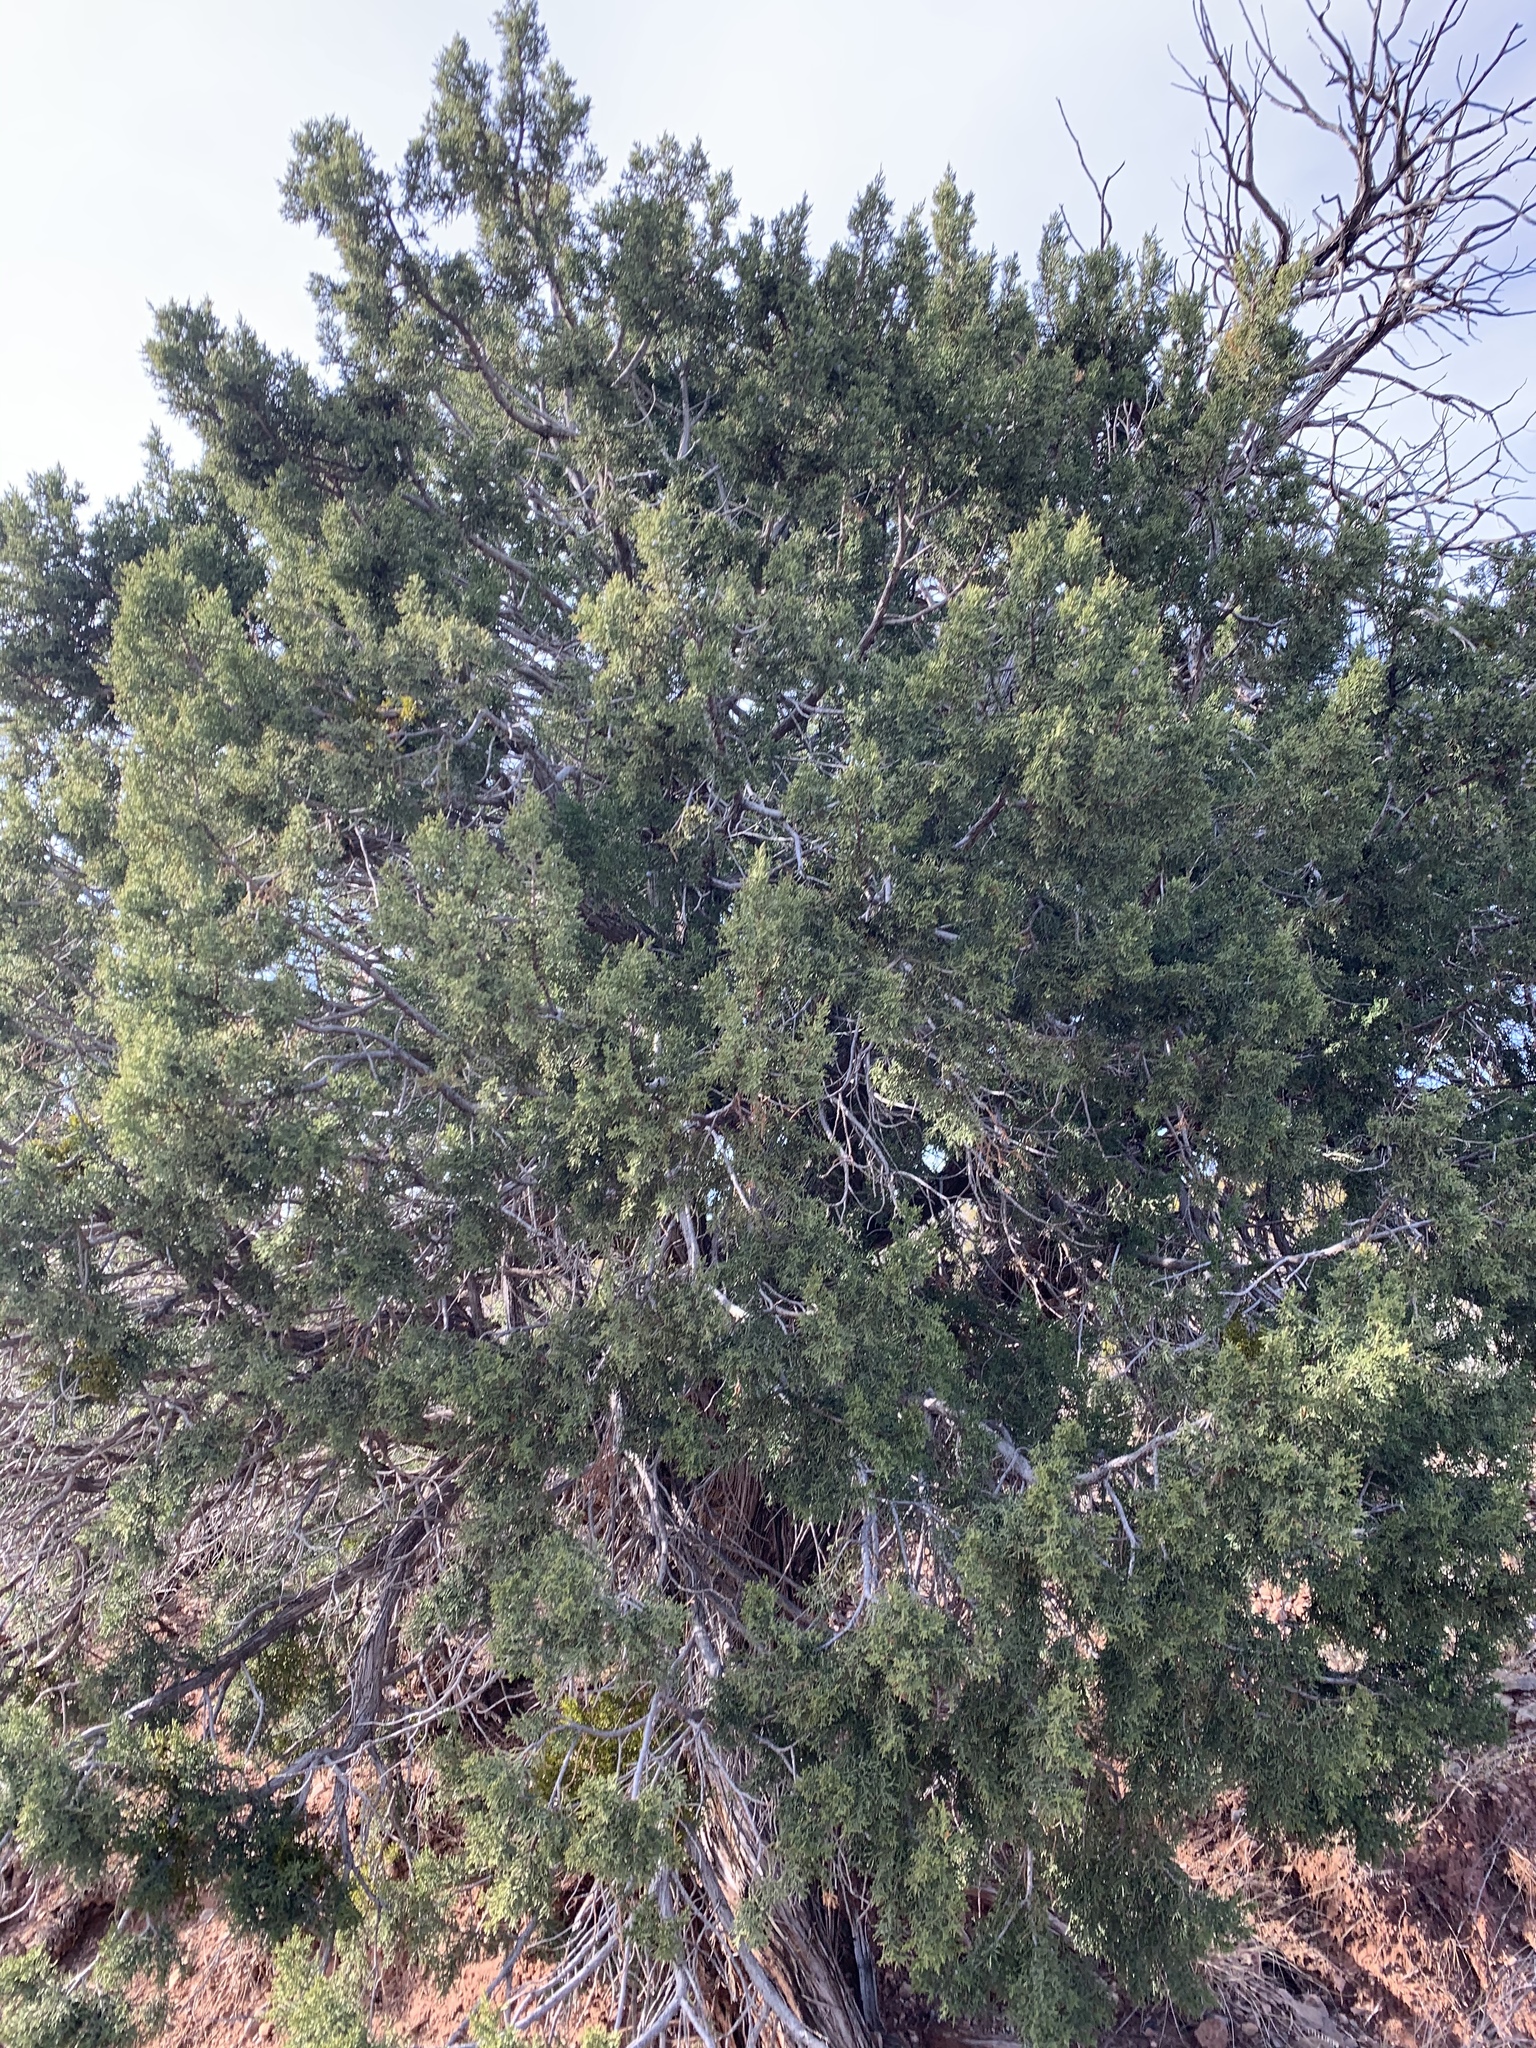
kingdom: Plantae
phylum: Tracheophyta
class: Pinopsida
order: Pinales
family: Cupressaceae
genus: Juniperus
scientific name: Juniperus monosperma
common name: One-seed juniper
